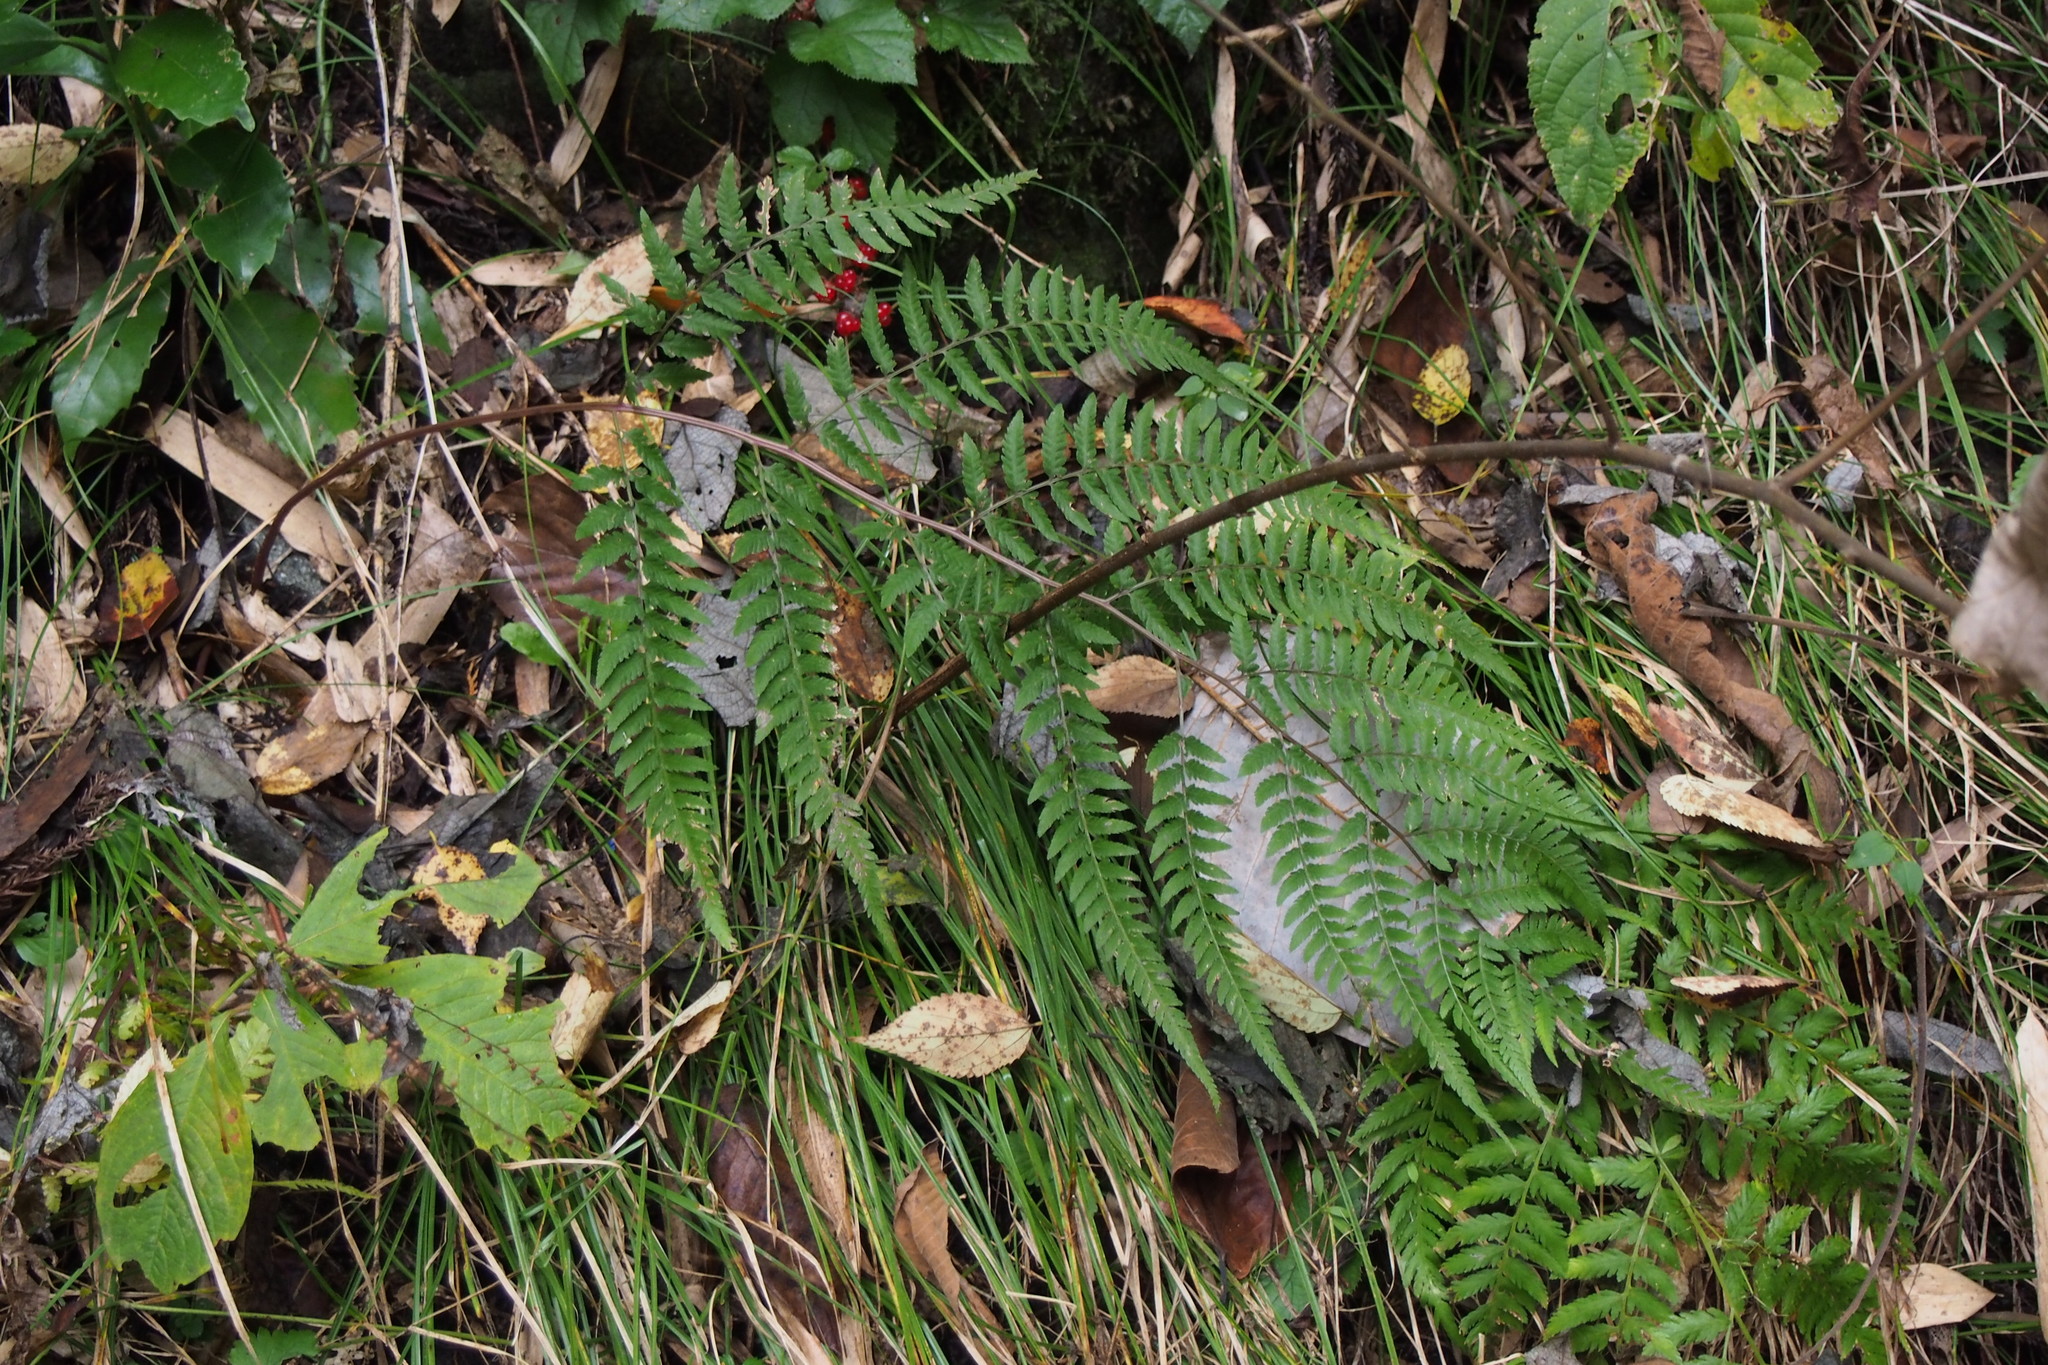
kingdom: Plantae
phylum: Tracheophyta
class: Polypodiopsida
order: Polypodiales
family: Athyriaceae
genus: Athyrium
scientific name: Athyrium vidalii
